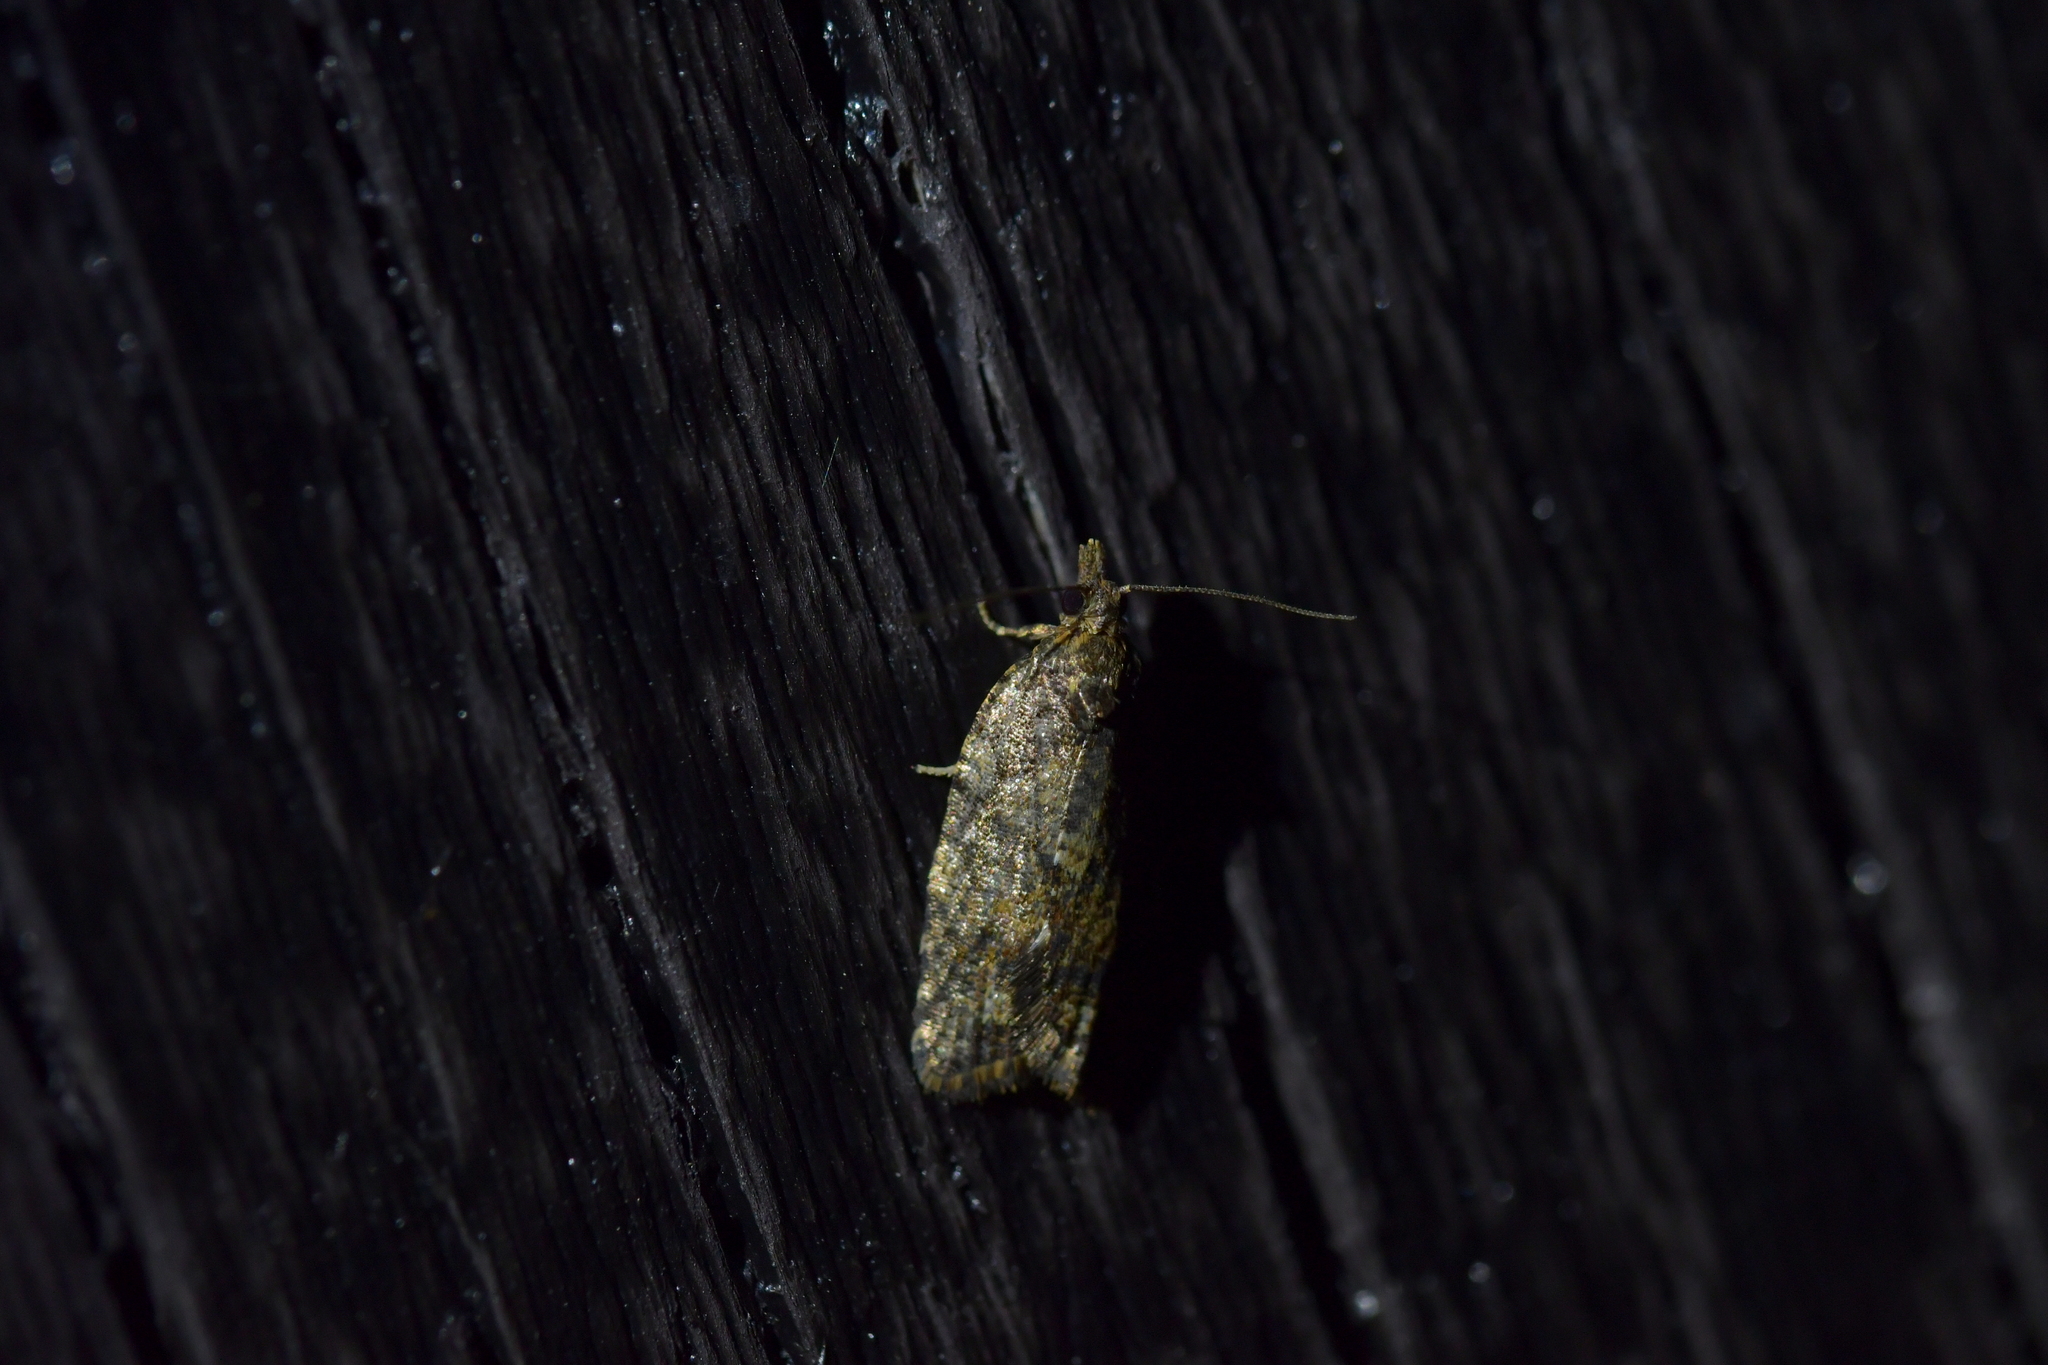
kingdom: Animalia
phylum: Arthropoda
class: Insecta
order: Lepidoptera
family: Tortricidae
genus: Capua
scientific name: Capua intractana
